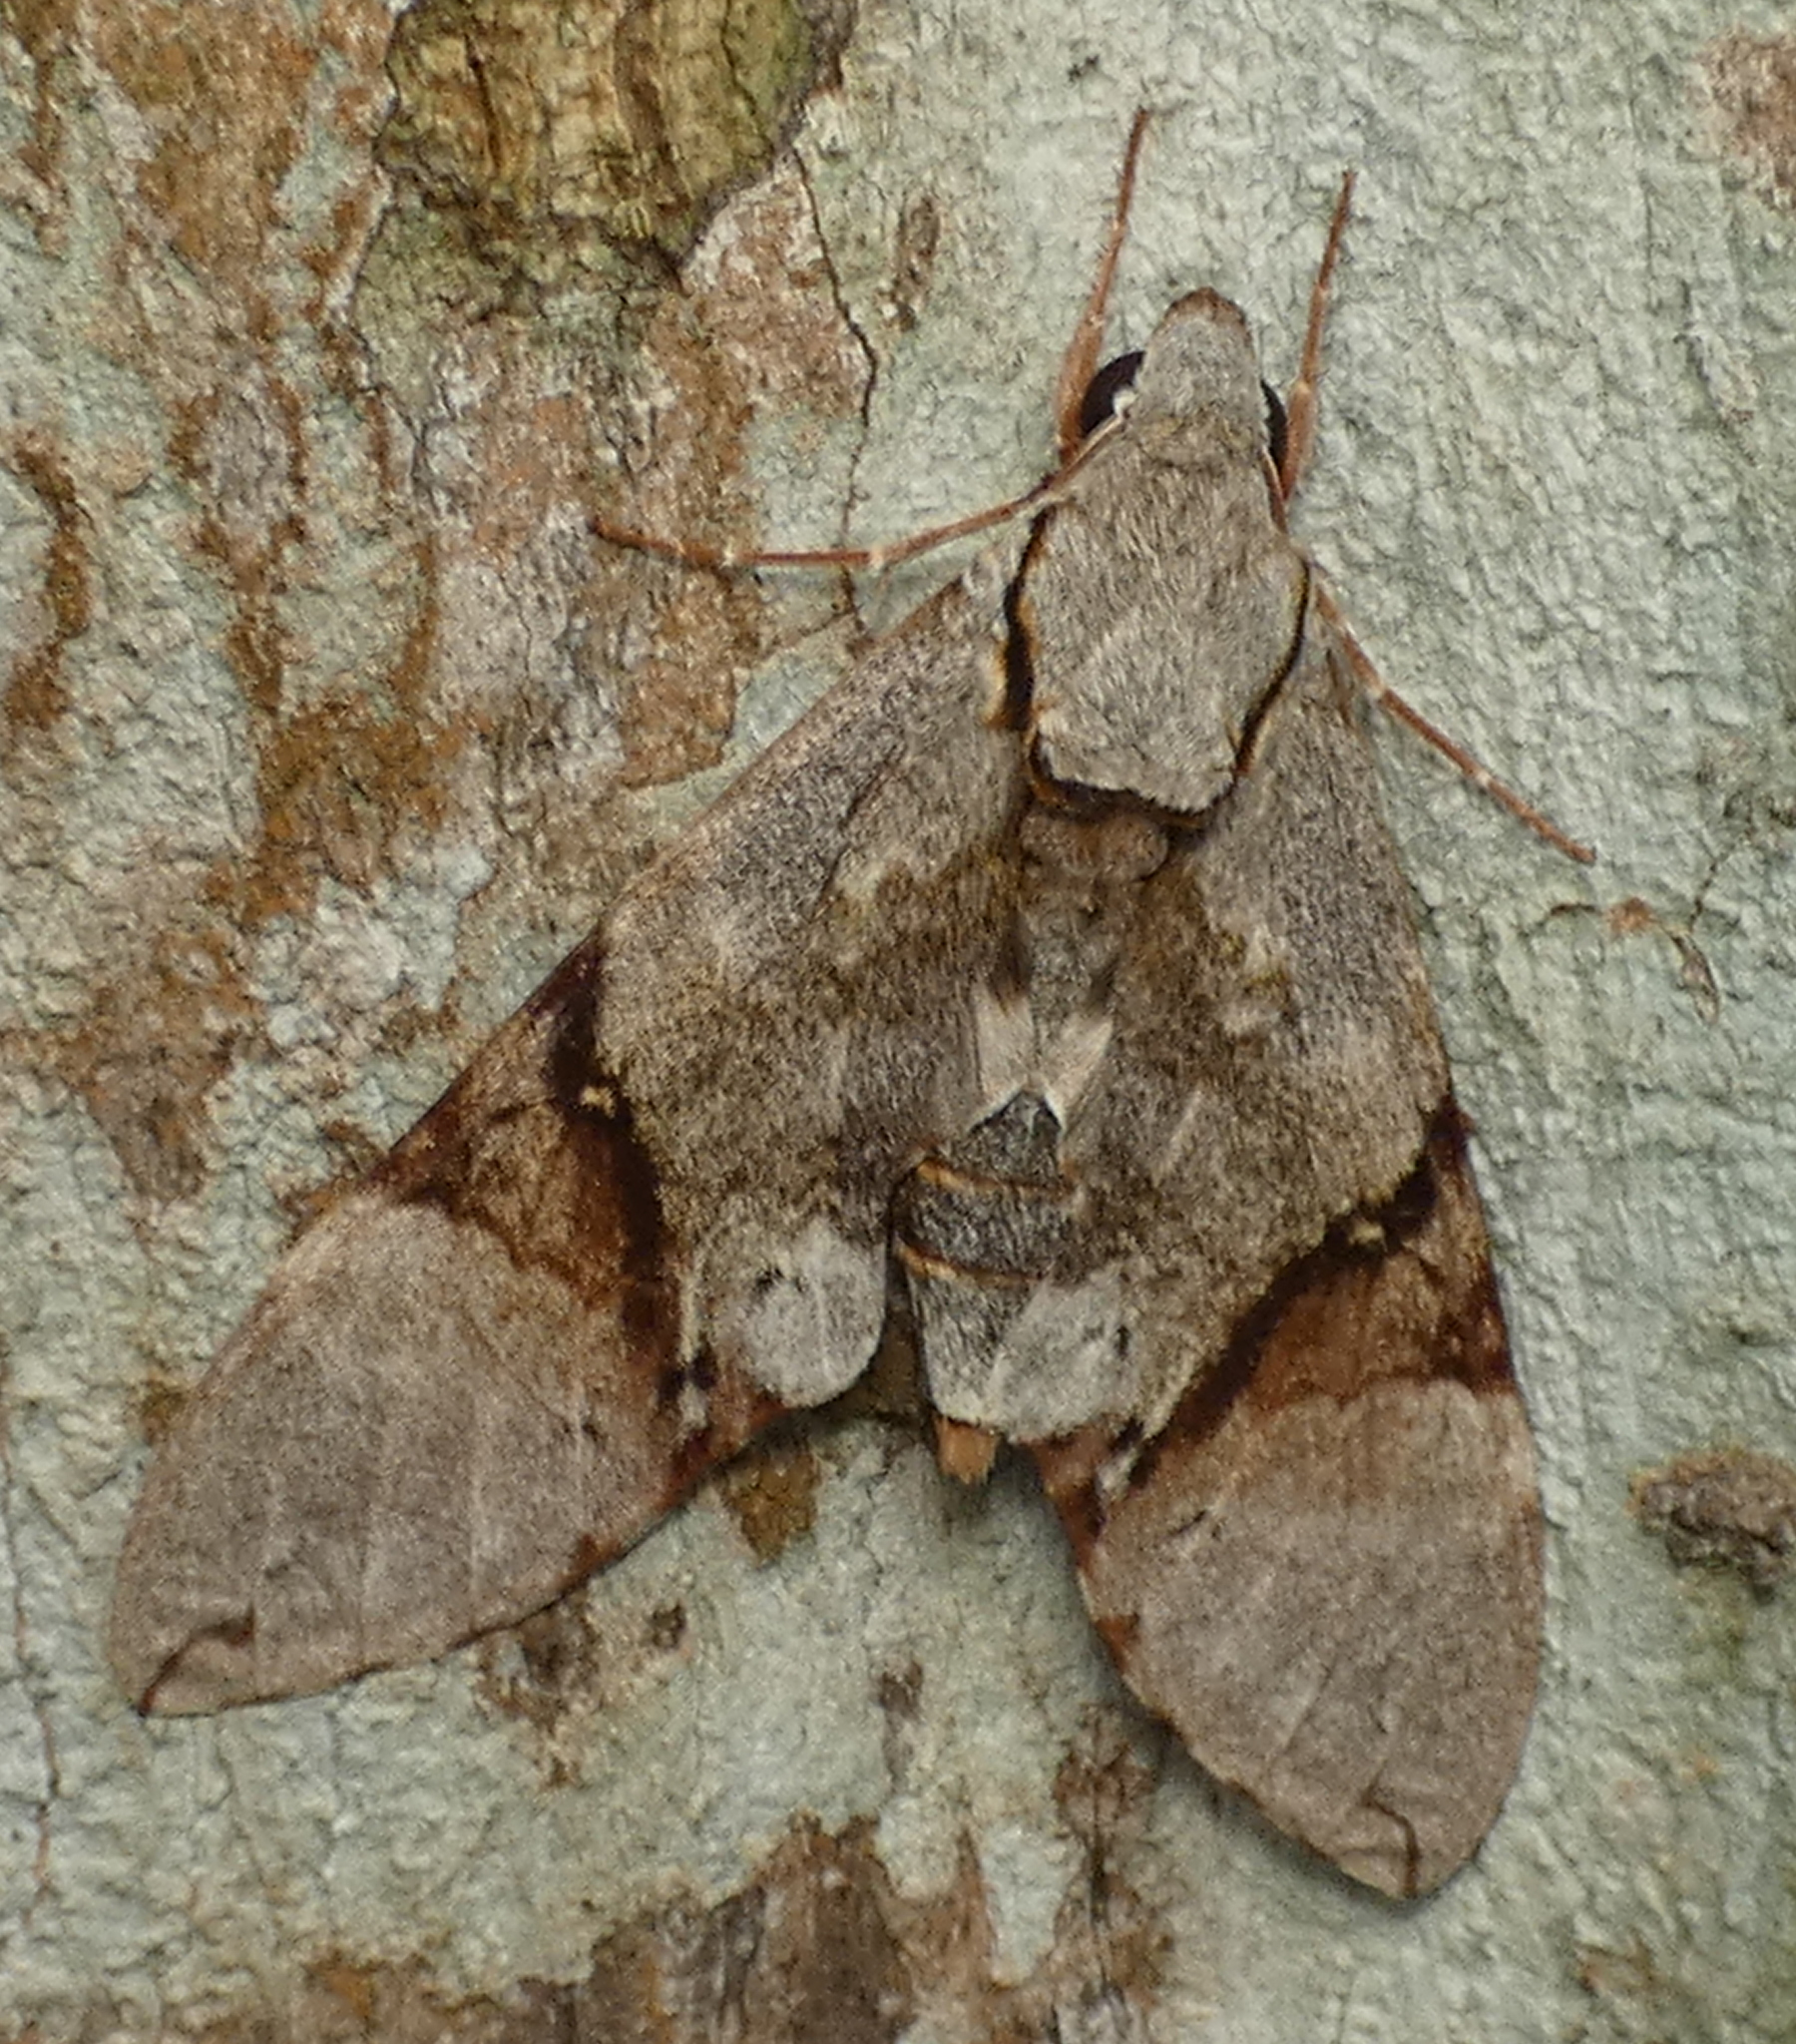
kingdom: Animalia
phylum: Arthropoda
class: Insecta
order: Lepidoptera
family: Sphingidae
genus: Manduca
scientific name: Manduca lefeburii
